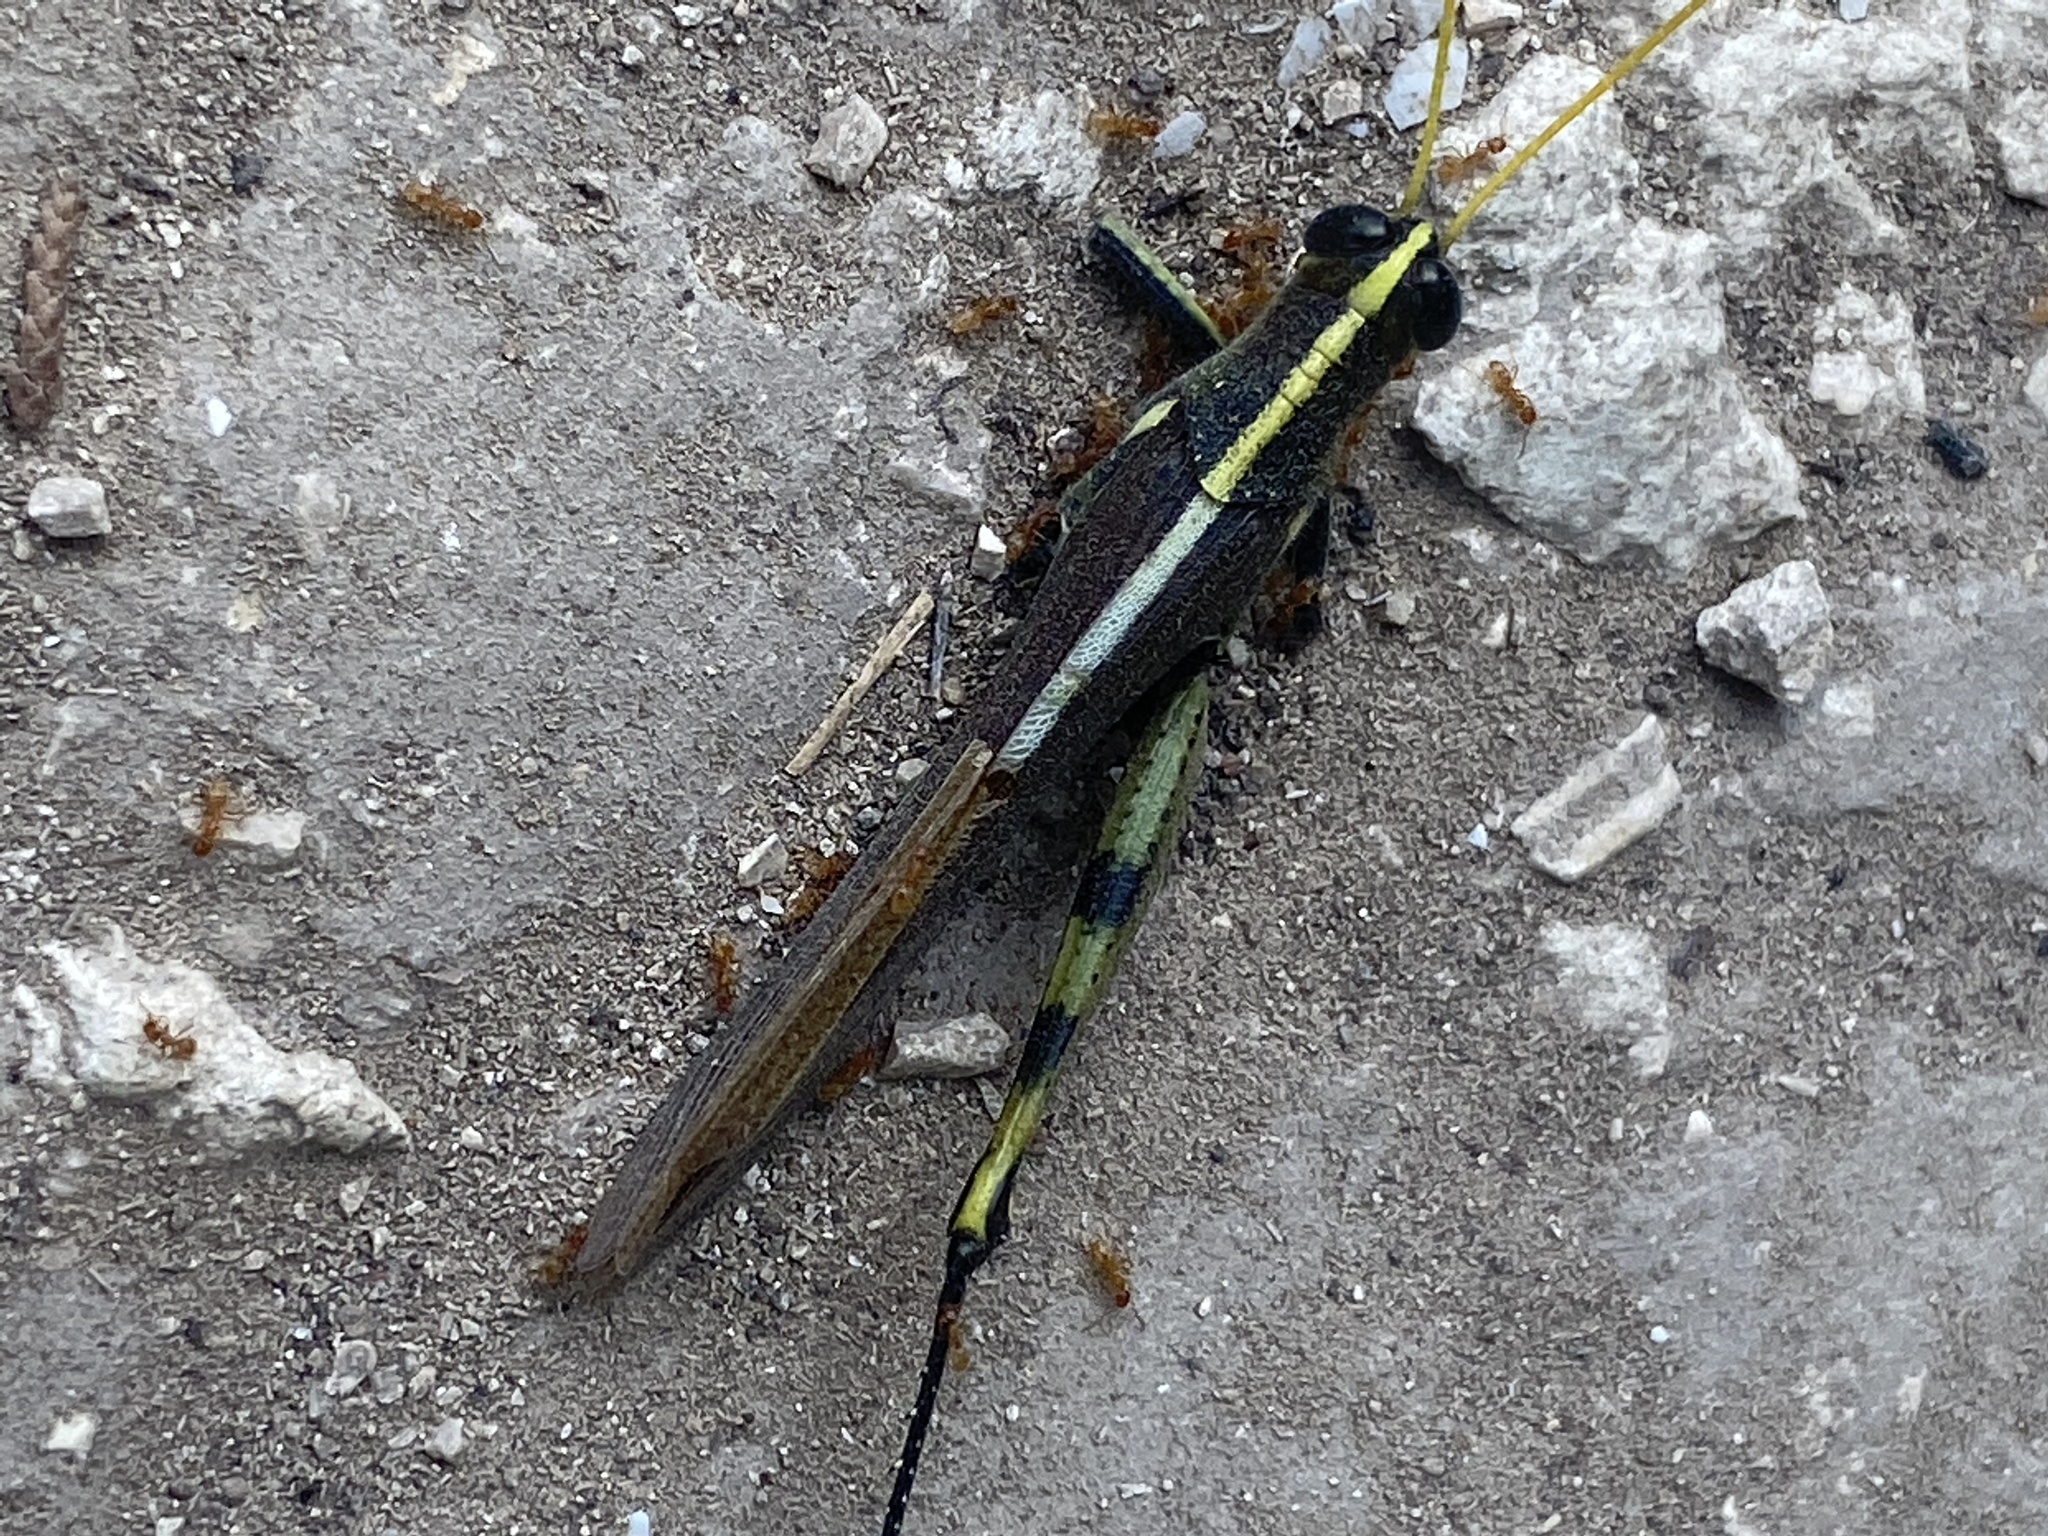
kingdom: Animalia
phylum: Arthropoda
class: Insecta
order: Orthoptera
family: Acrididae
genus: Schistocerca
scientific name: Schistocerca obscura
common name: Obscure bird grasshopper
